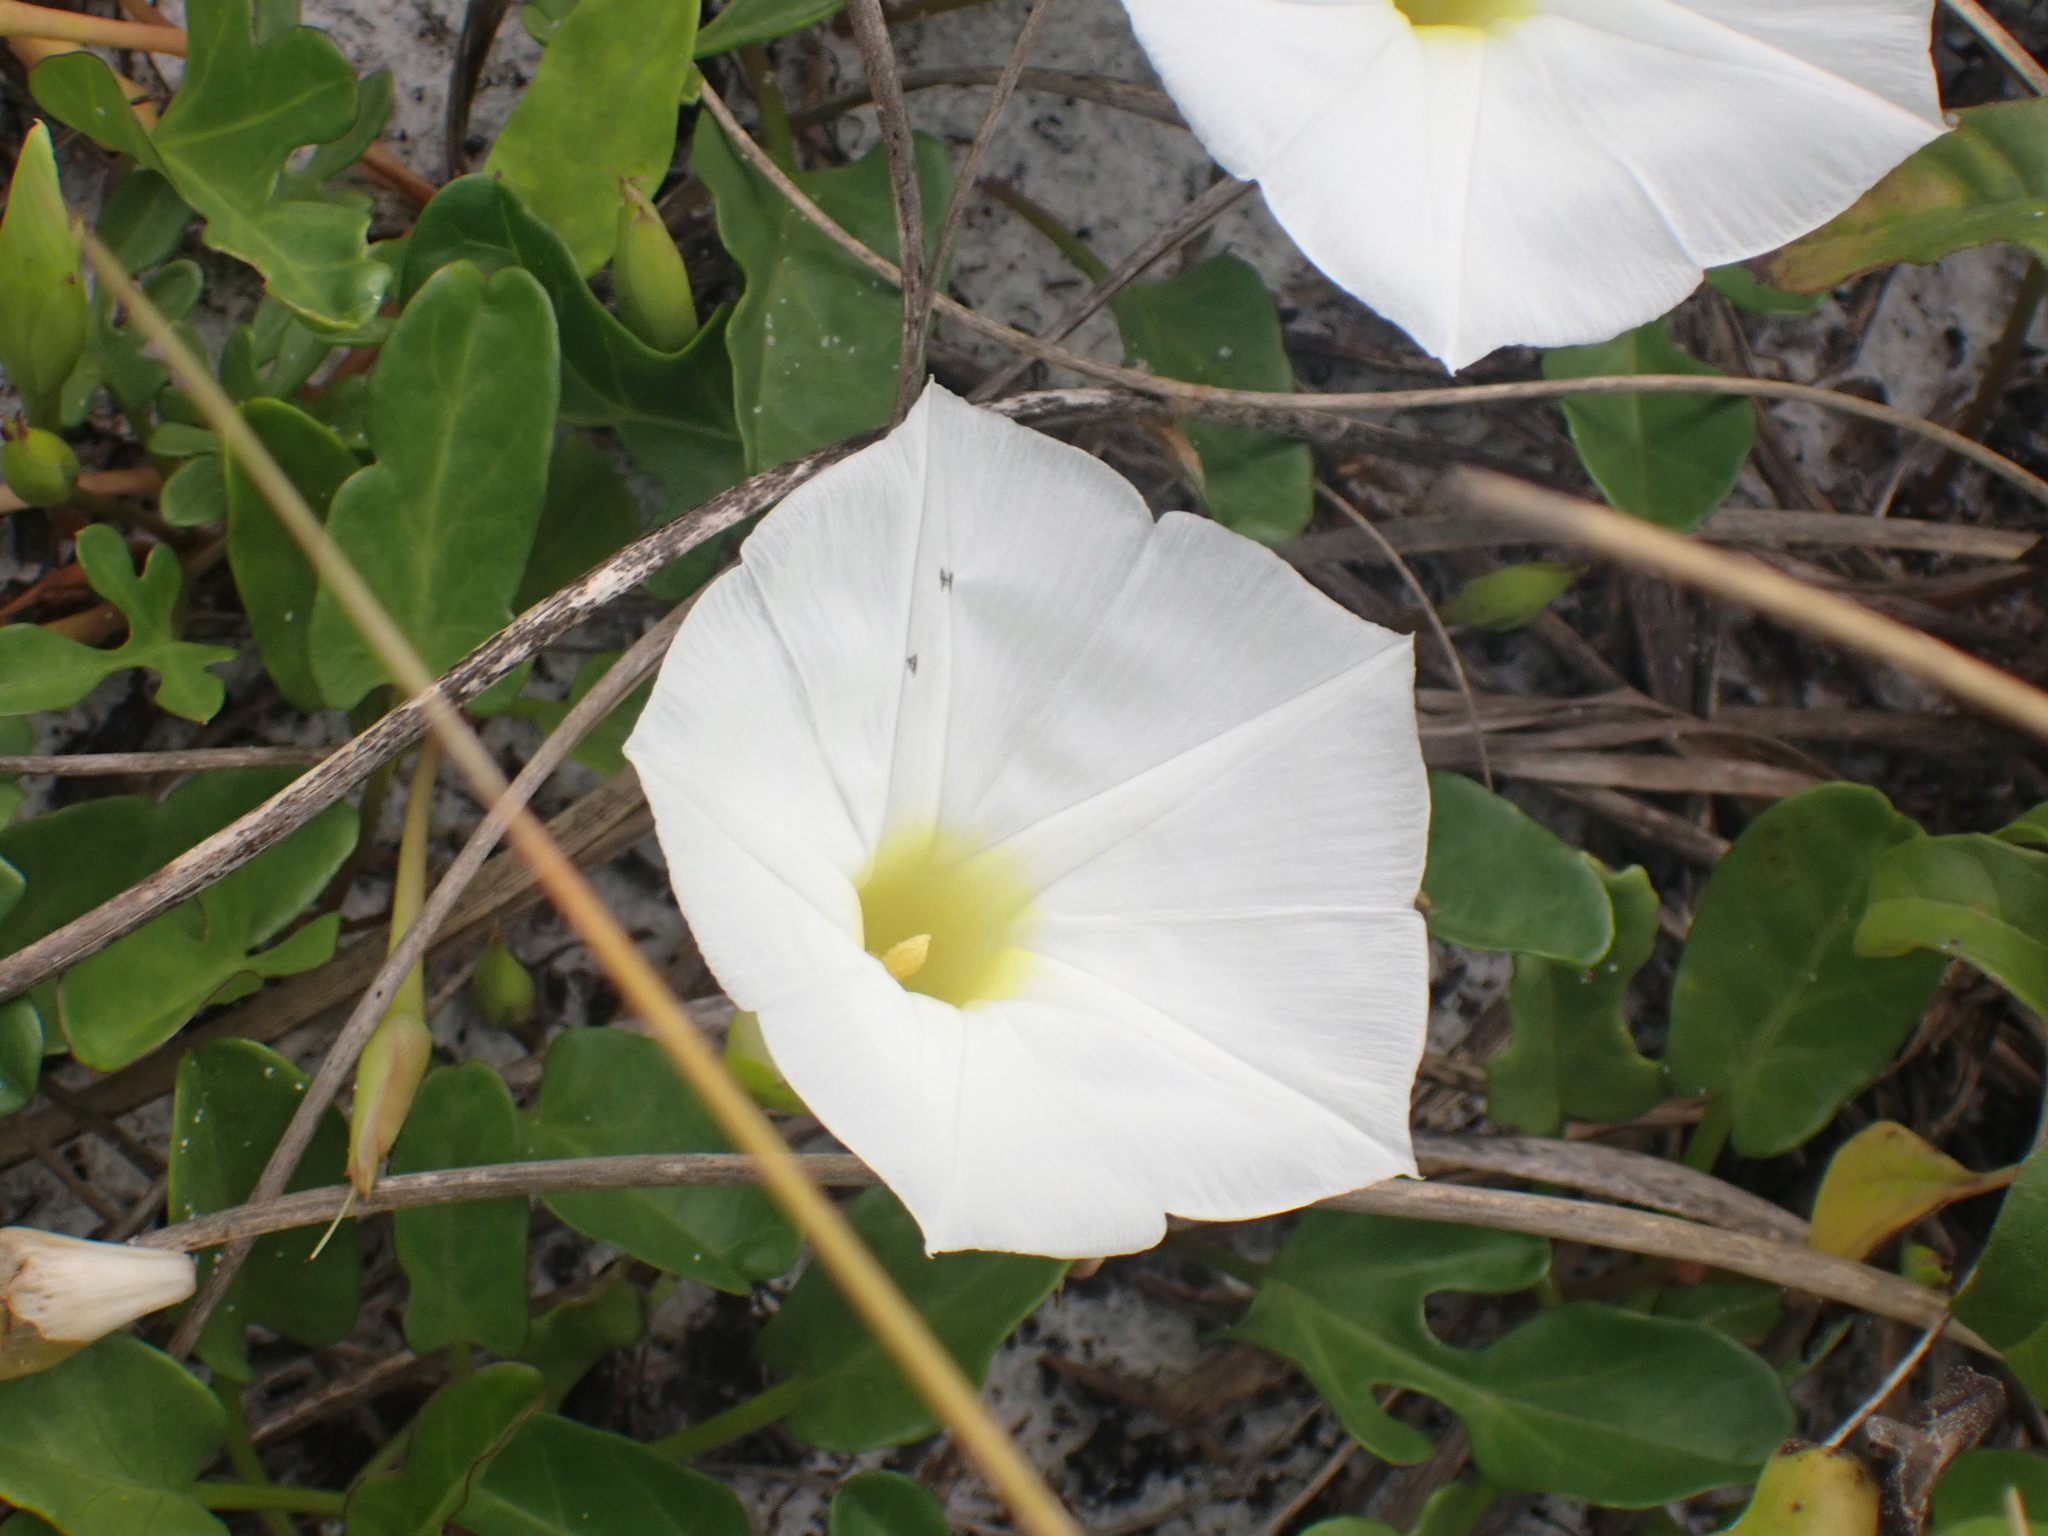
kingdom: Plantae
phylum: Tracheophyta
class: Magnoliopsida
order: Solanales
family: Convolvulaceae
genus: Ipomoea
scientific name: Ipomoea imperati
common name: Fiddle-leaf morning-glory
